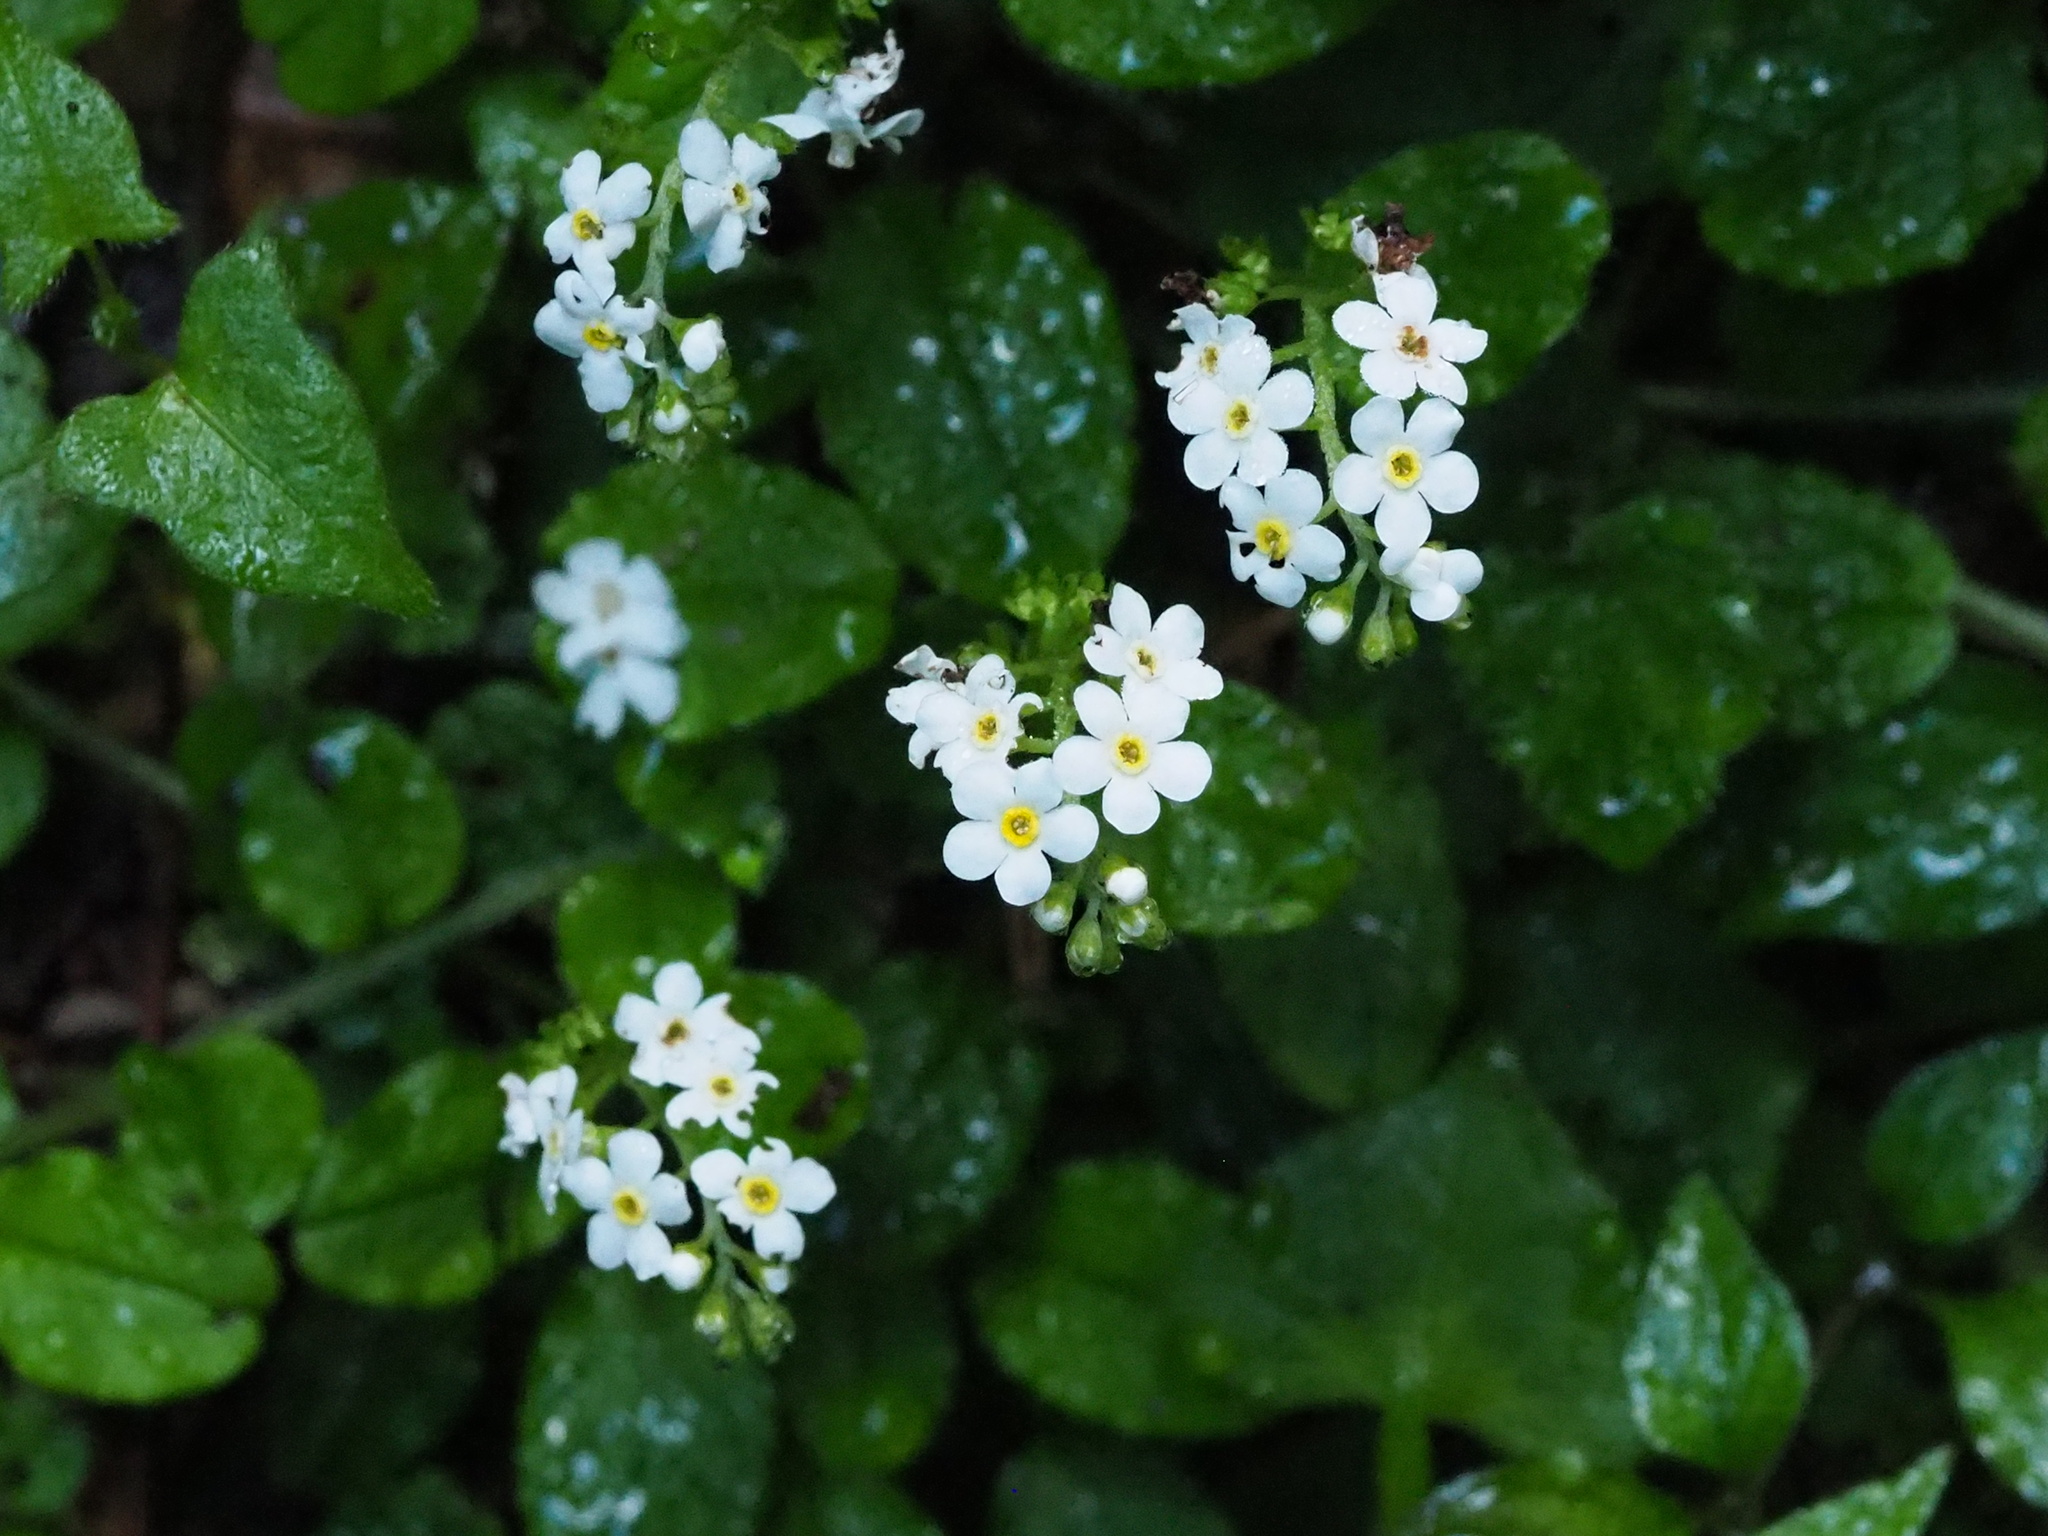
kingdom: Plantae
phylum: Tracheophyta
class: Magnoliopsida
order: Boraginales
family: Boraginaceae
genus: Trigonotis
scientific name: Trigonotis formosana
